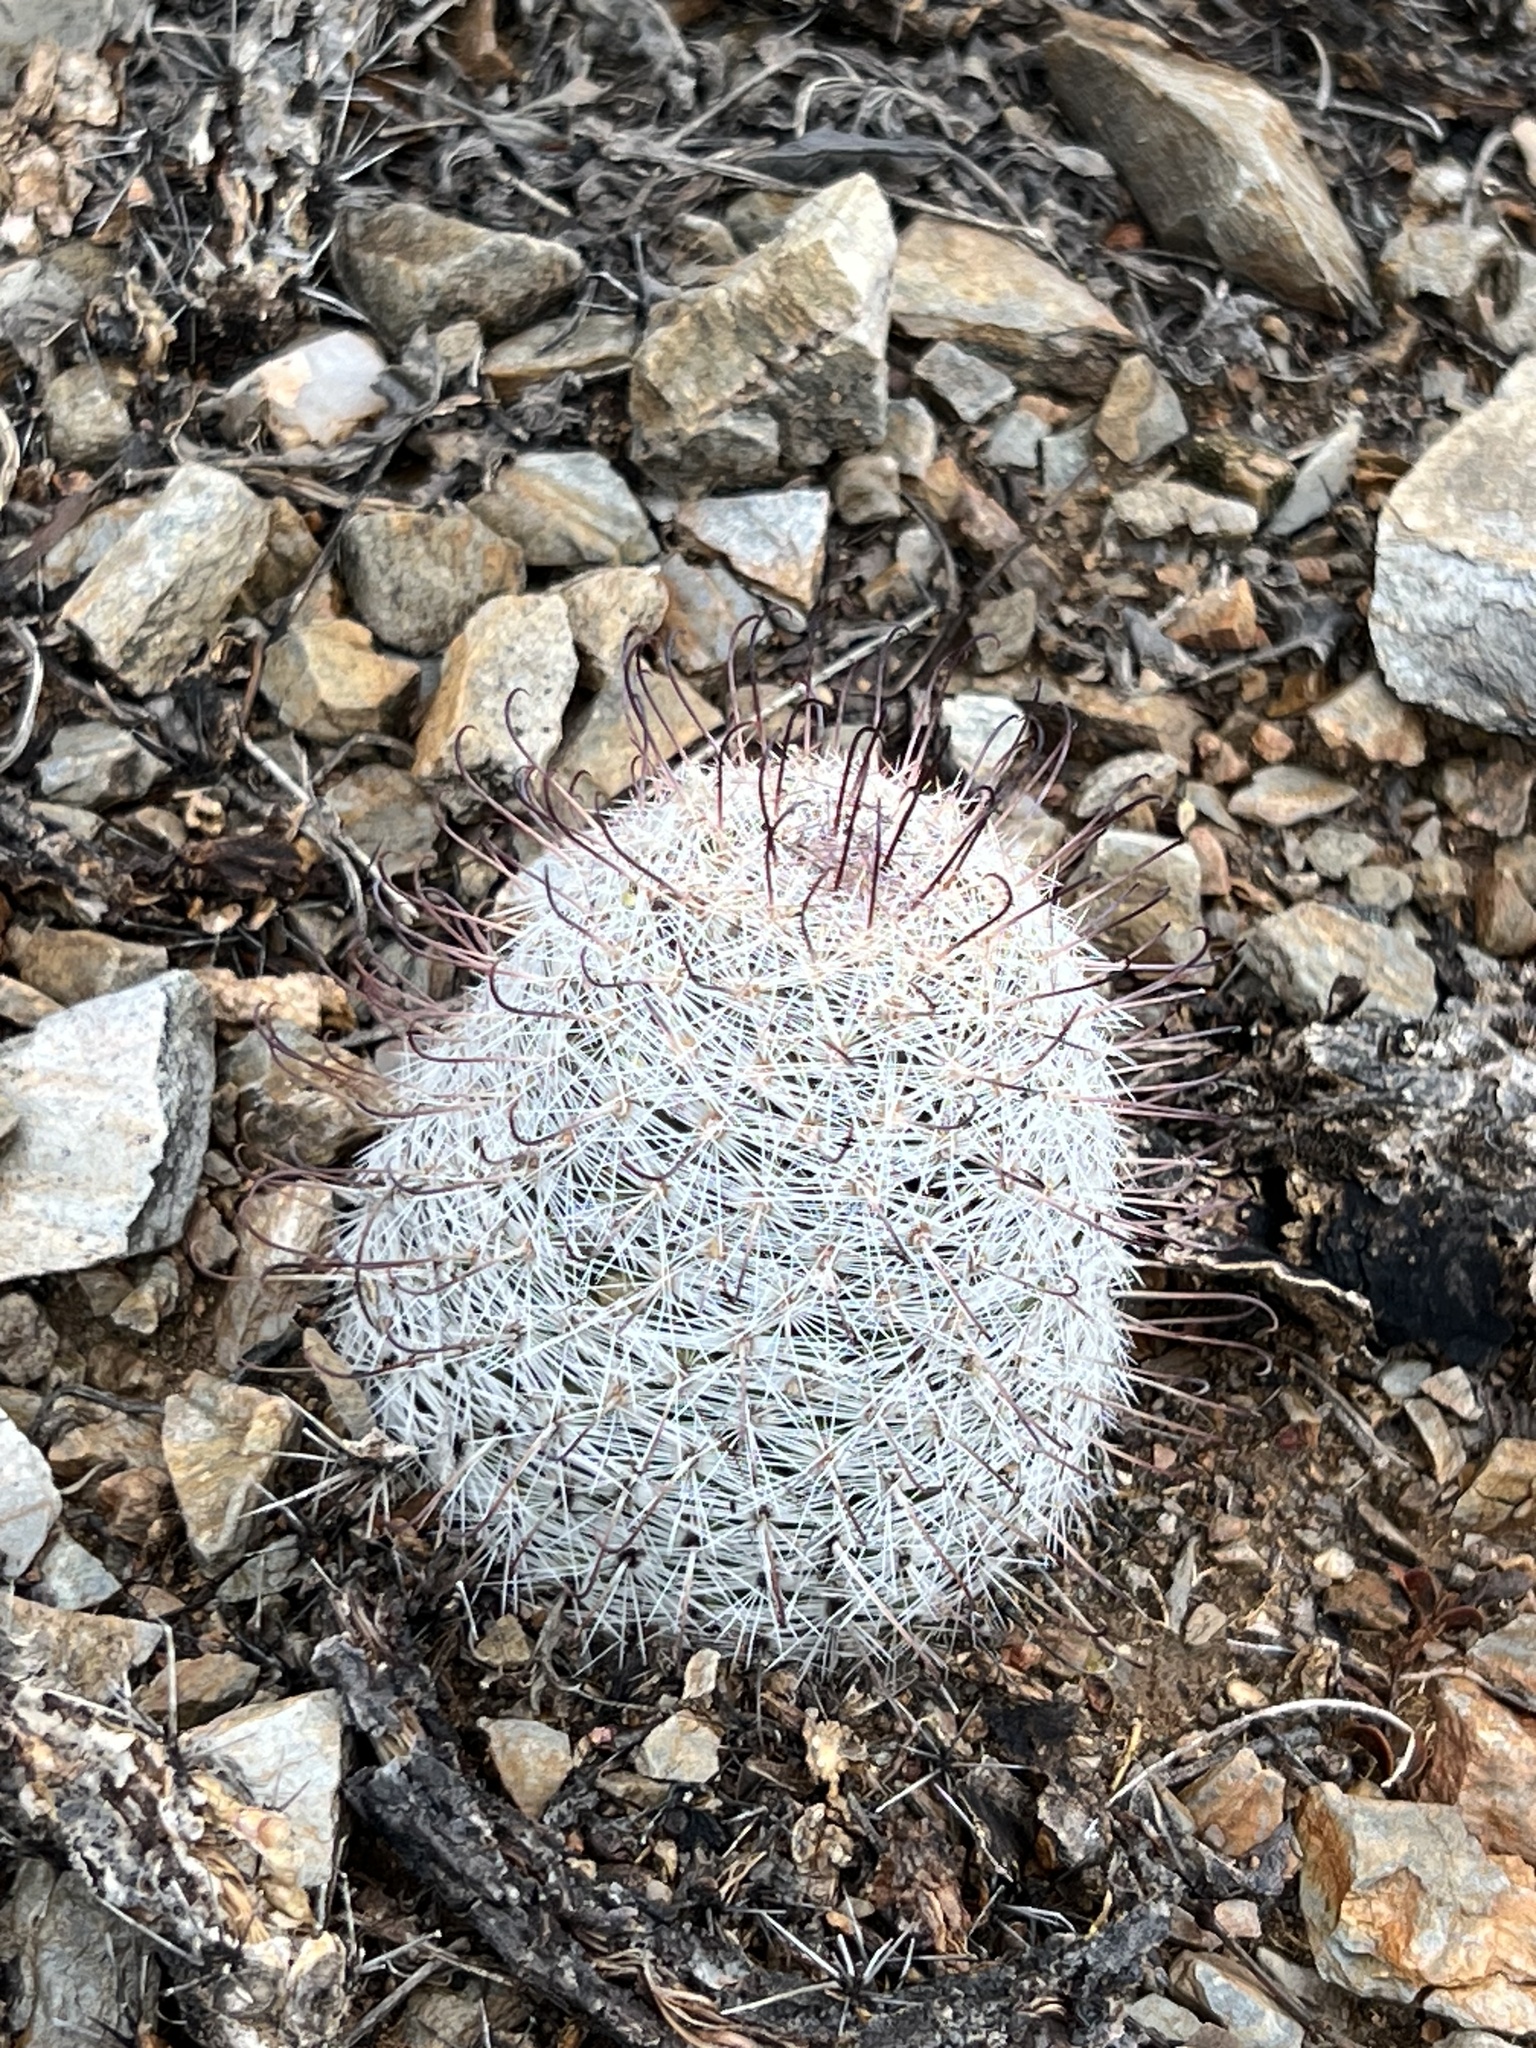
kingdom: Plantae
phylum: Tracheophyta
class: Magnoliopsida
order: Caryophyllales
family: Cactaceae
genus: Cochemiea
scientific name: Cochemiea grahamii
